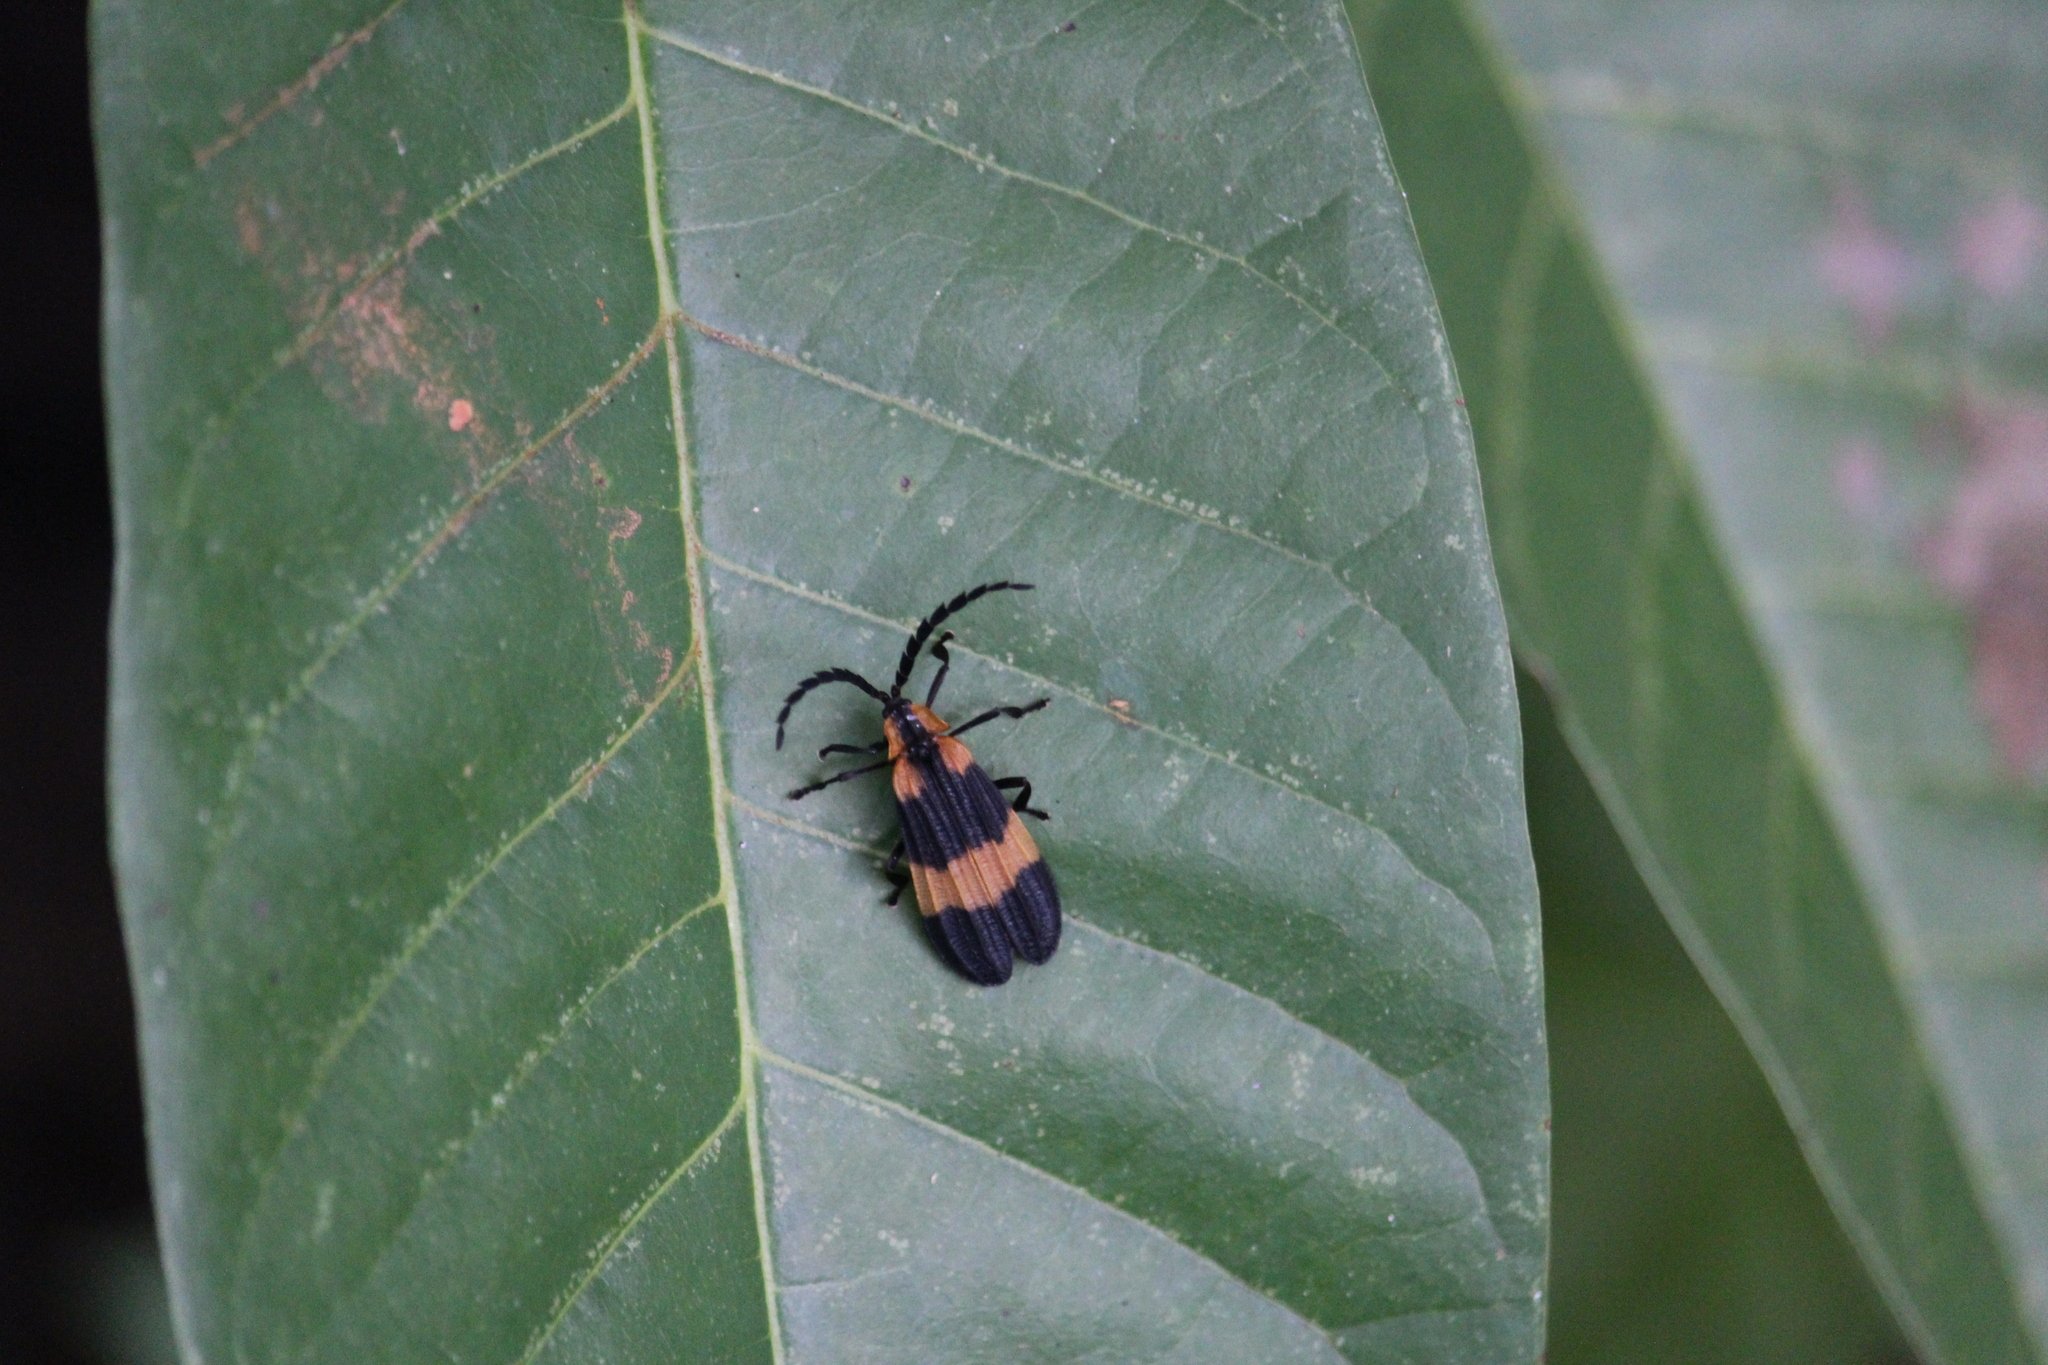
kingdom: Animalia
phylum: Arthropoda
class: Insecta
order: Coleoptera
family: Lycidae
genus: Calopteron
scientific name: Calopteron reticulatum
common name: Banded net-winged beetle
